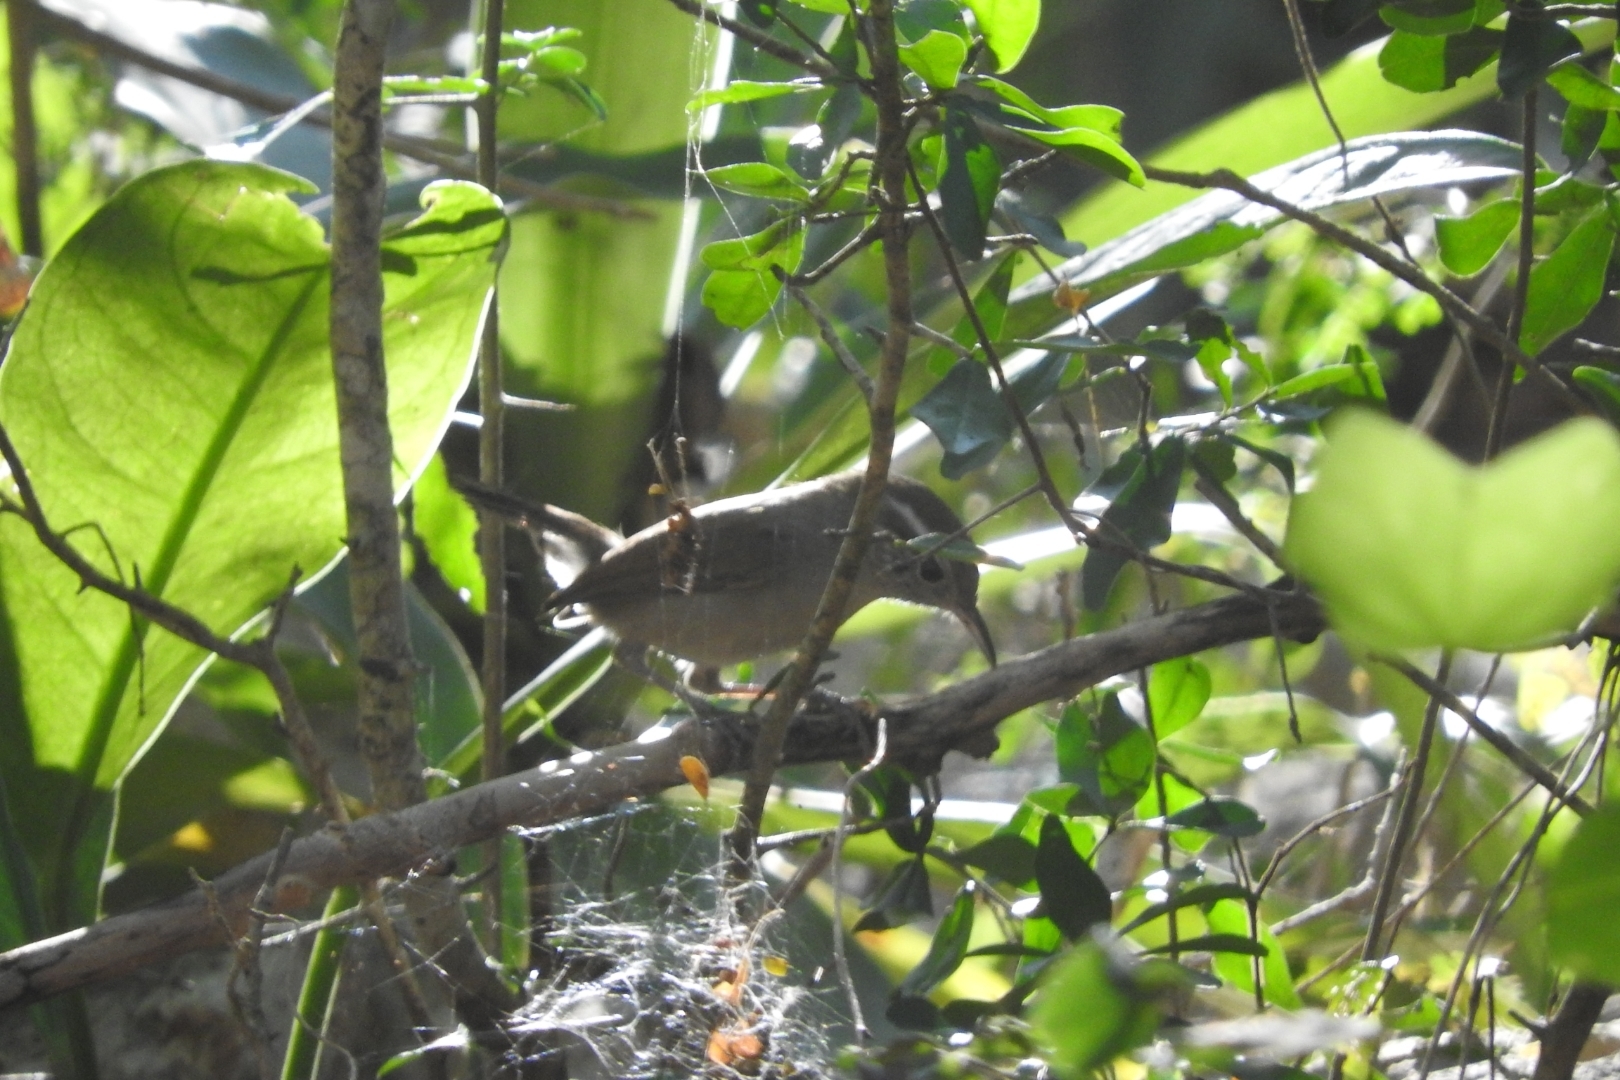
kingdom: Animalia
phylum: Chordata
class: Aves
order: Passeriformes
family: Troglodytidae
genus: Uropsila
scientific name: Uropsila leucogastra
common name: White-bellied wren
